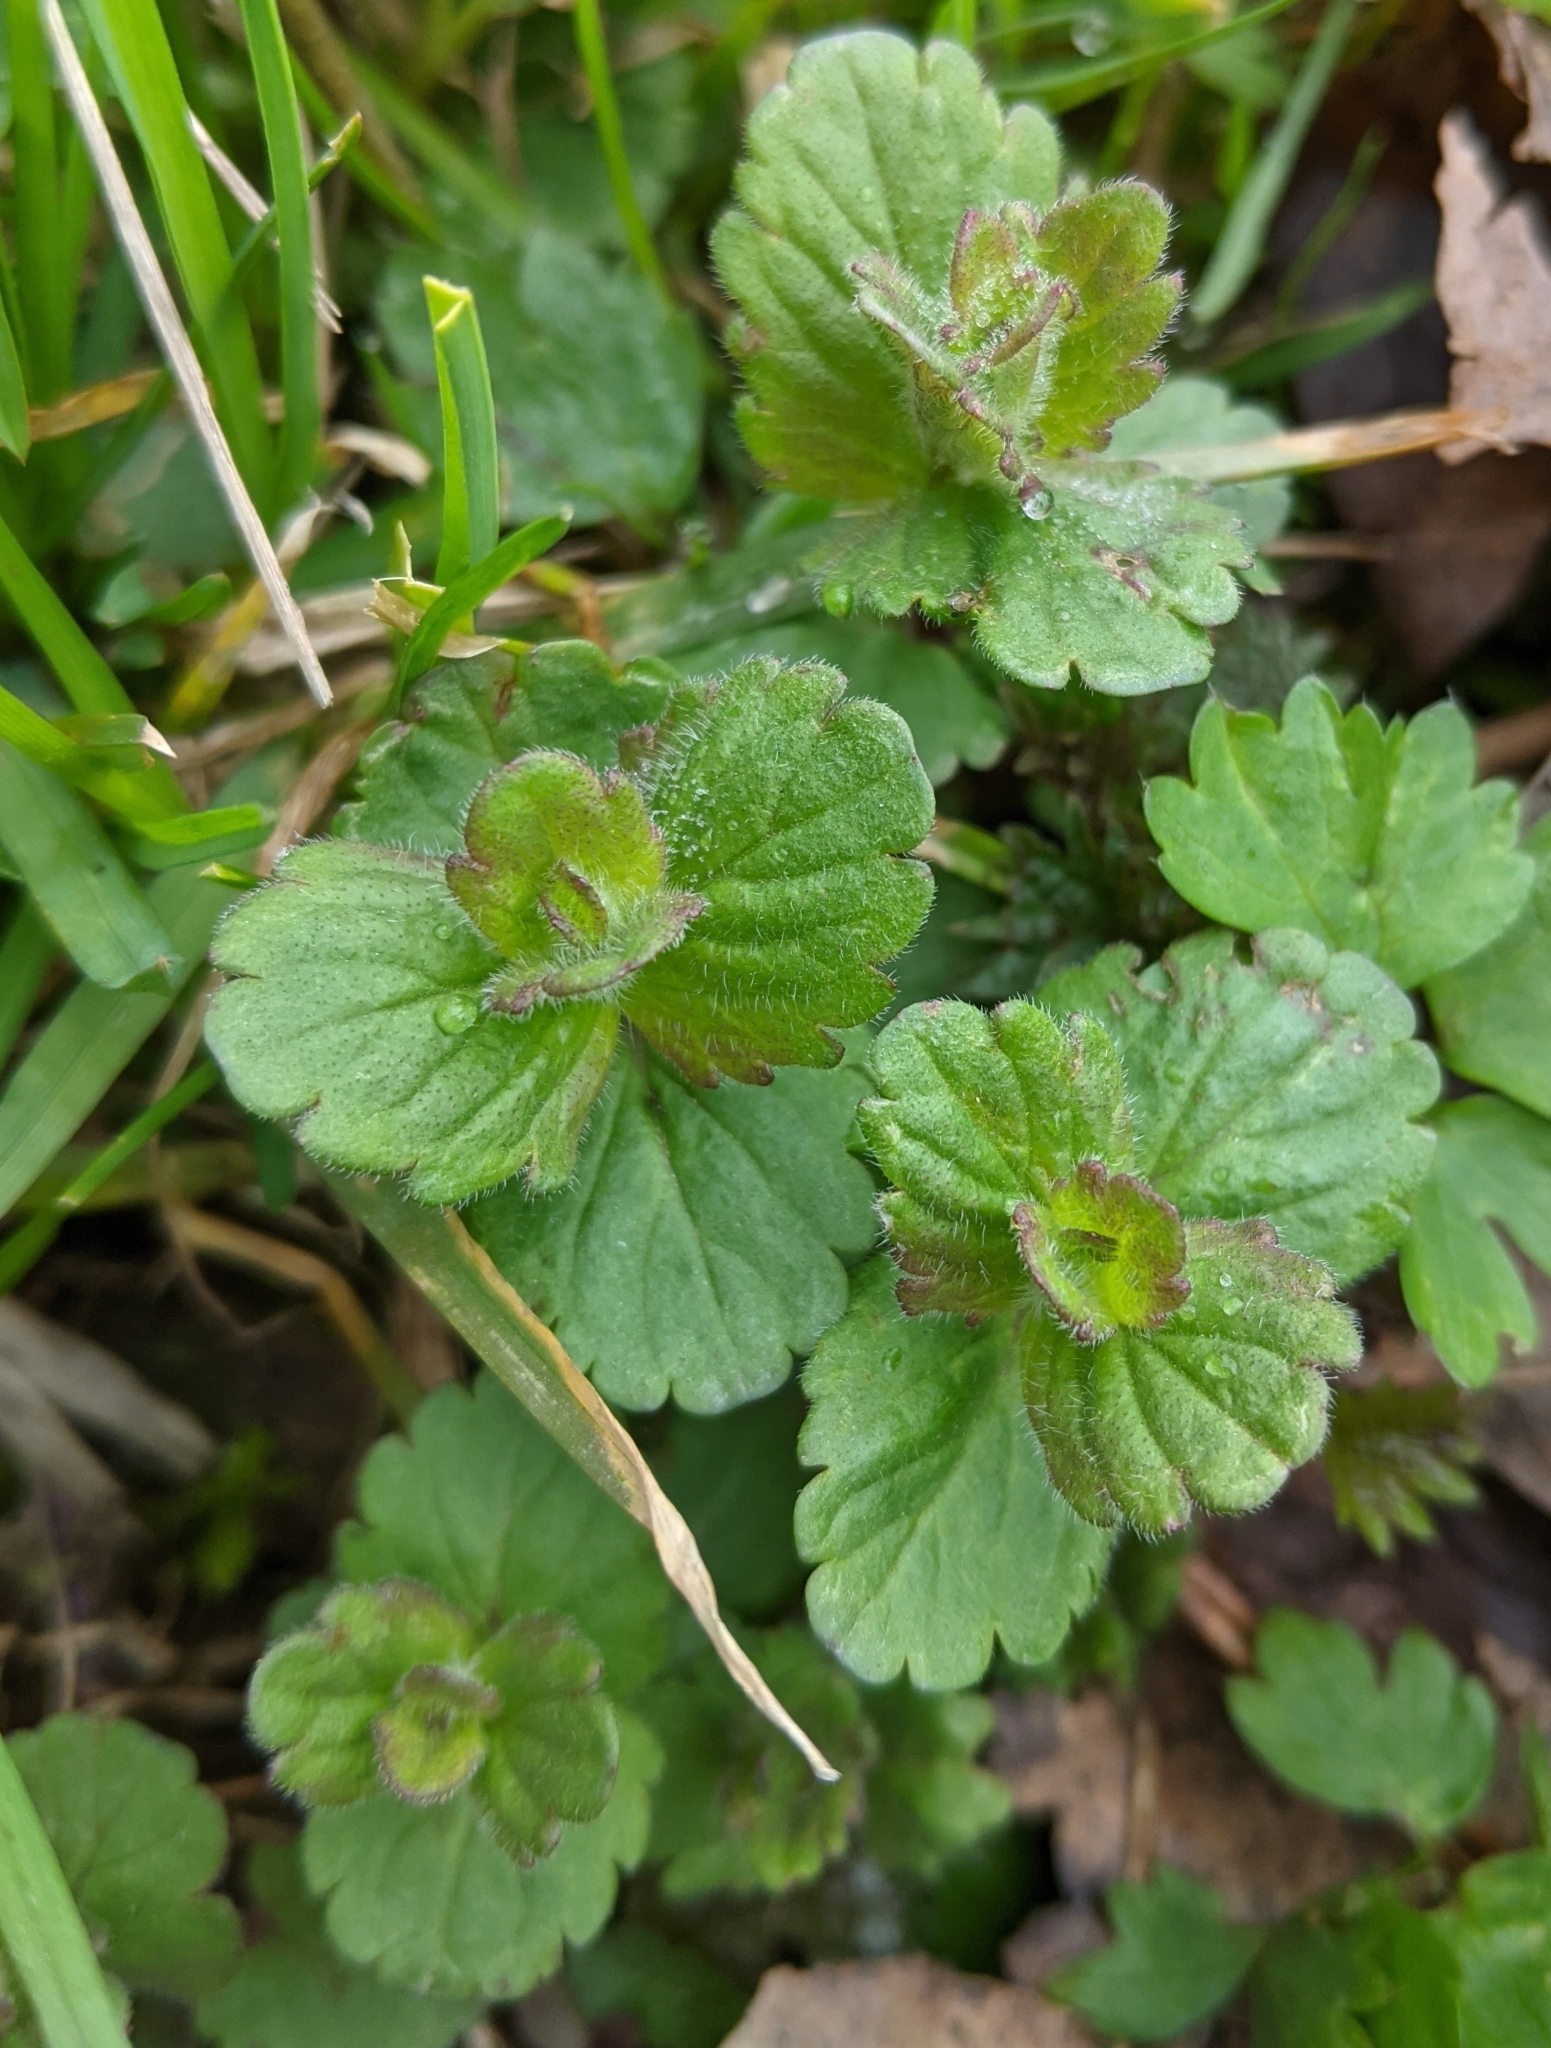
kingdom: Plantae
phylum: Tracheophyta
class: Magnoliopsida
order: Lamiales
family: Plantaginaceae
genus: Veronica
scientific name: Veronica chamaedrys
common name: Germander speedwell
